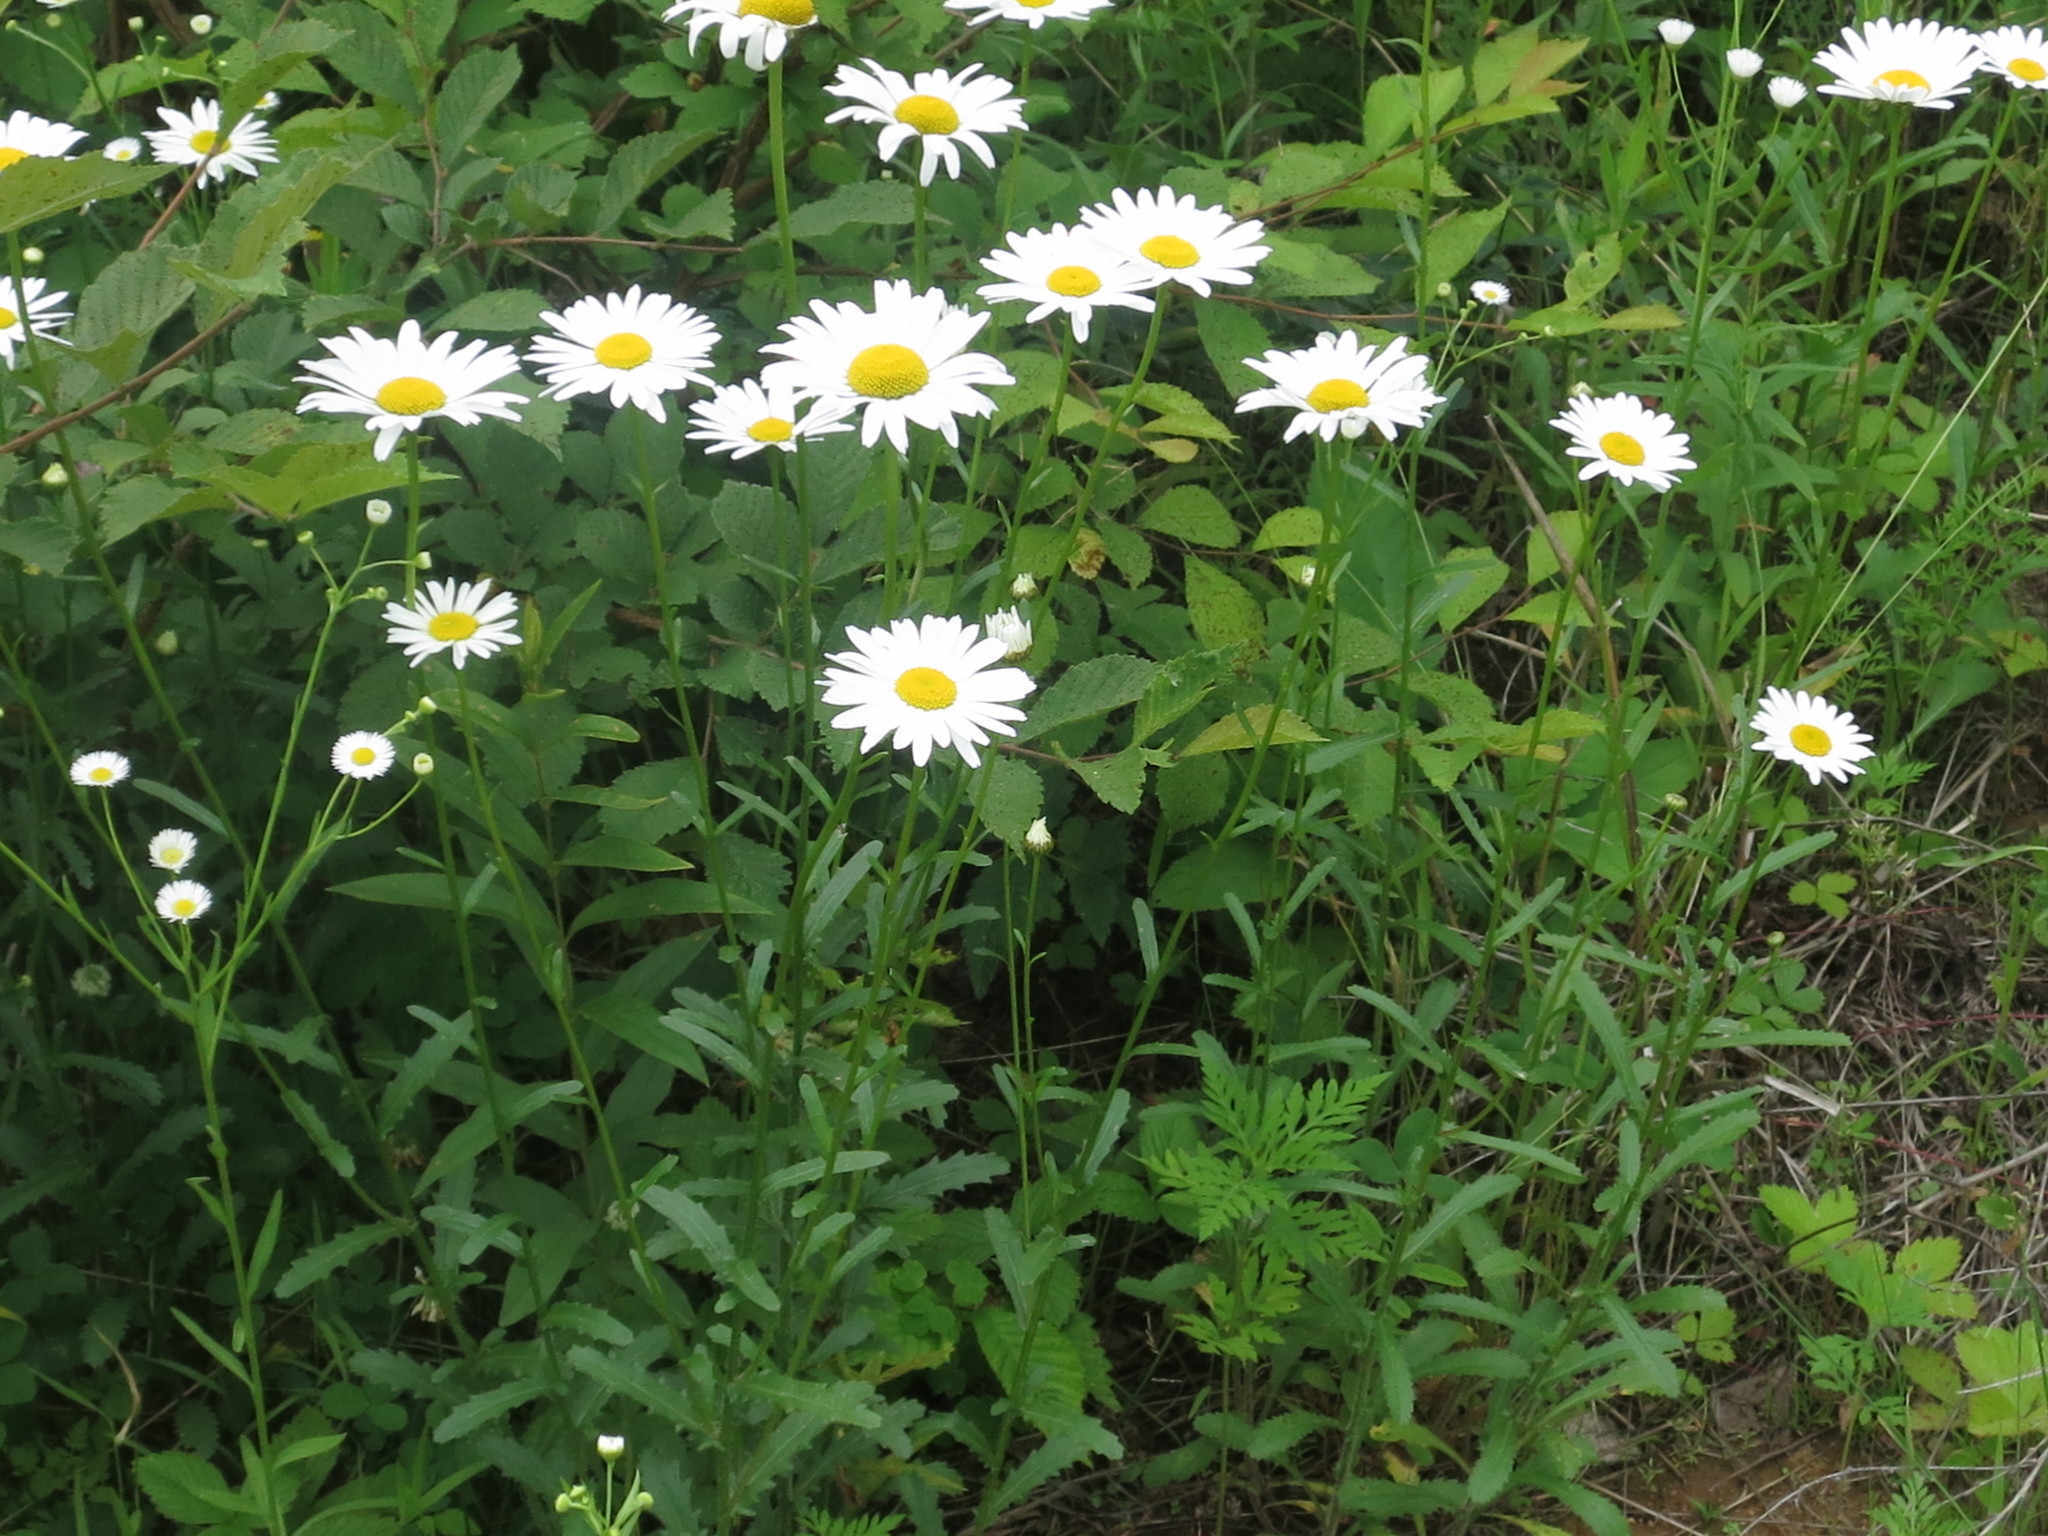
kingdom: Plantae
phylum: Tracheophyta
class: Magnoliopsida
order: Asterales
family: Asteraceae
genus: Leucanthemum
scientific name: Leucanthemum vulgare
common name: Oxeye daisy
